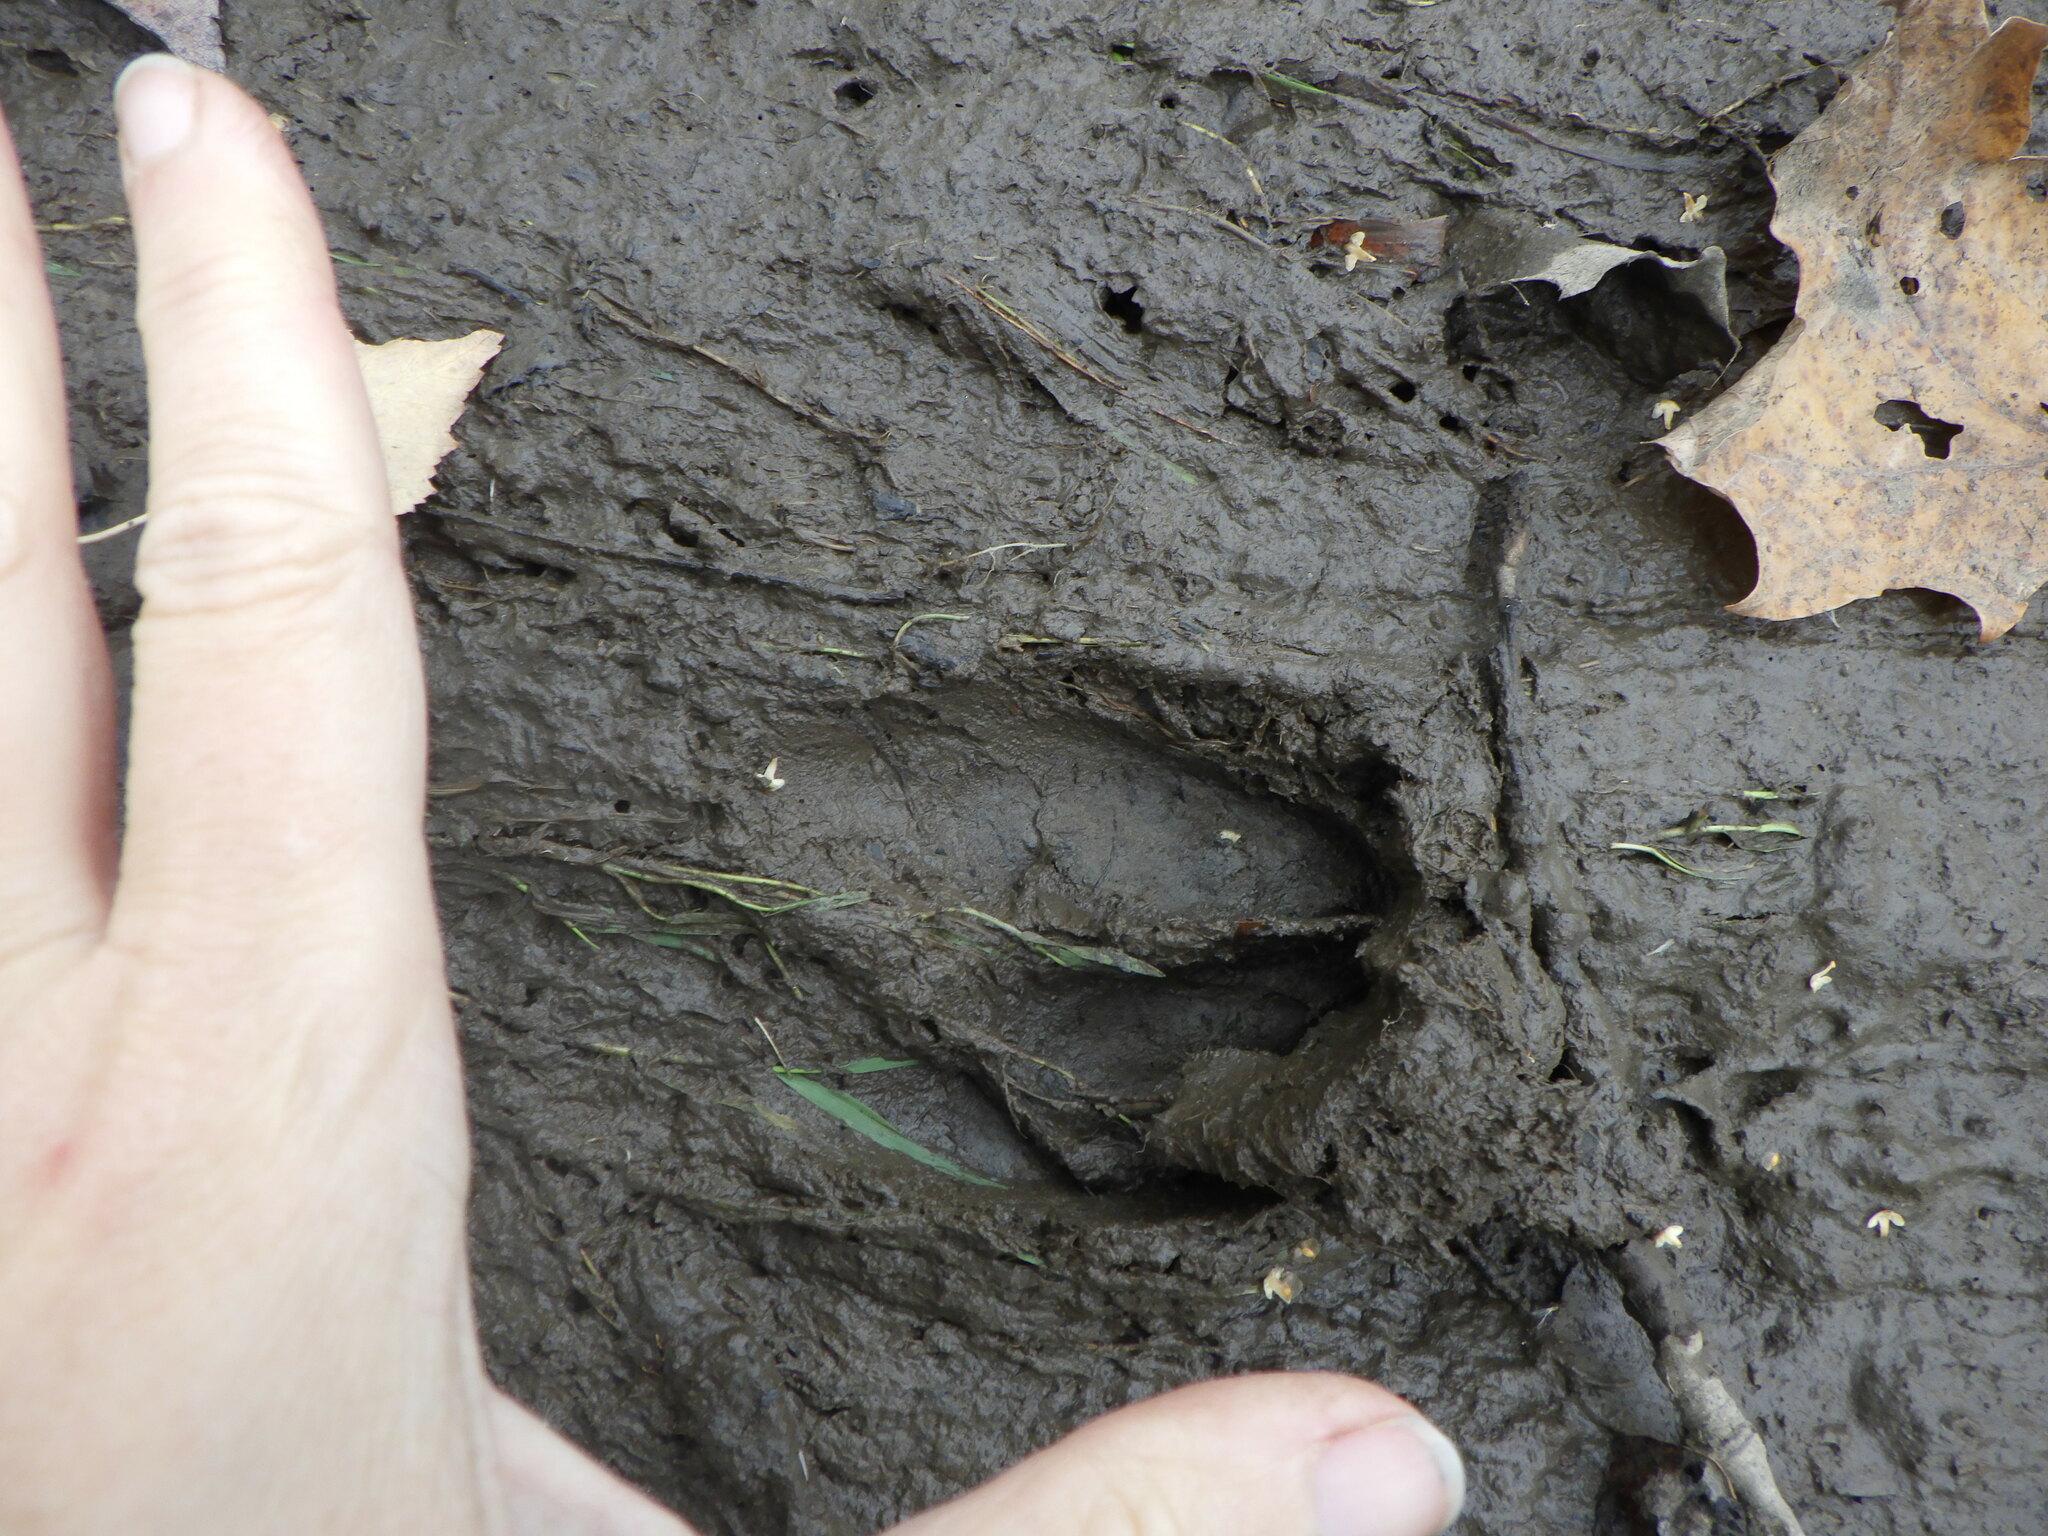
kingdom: Animalia
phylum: Chordata
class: Mammalia
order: Artiodactyla
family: Cervidae
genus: Odocoileus
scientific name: Odocoileus virginianus
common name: White-tailed deer
